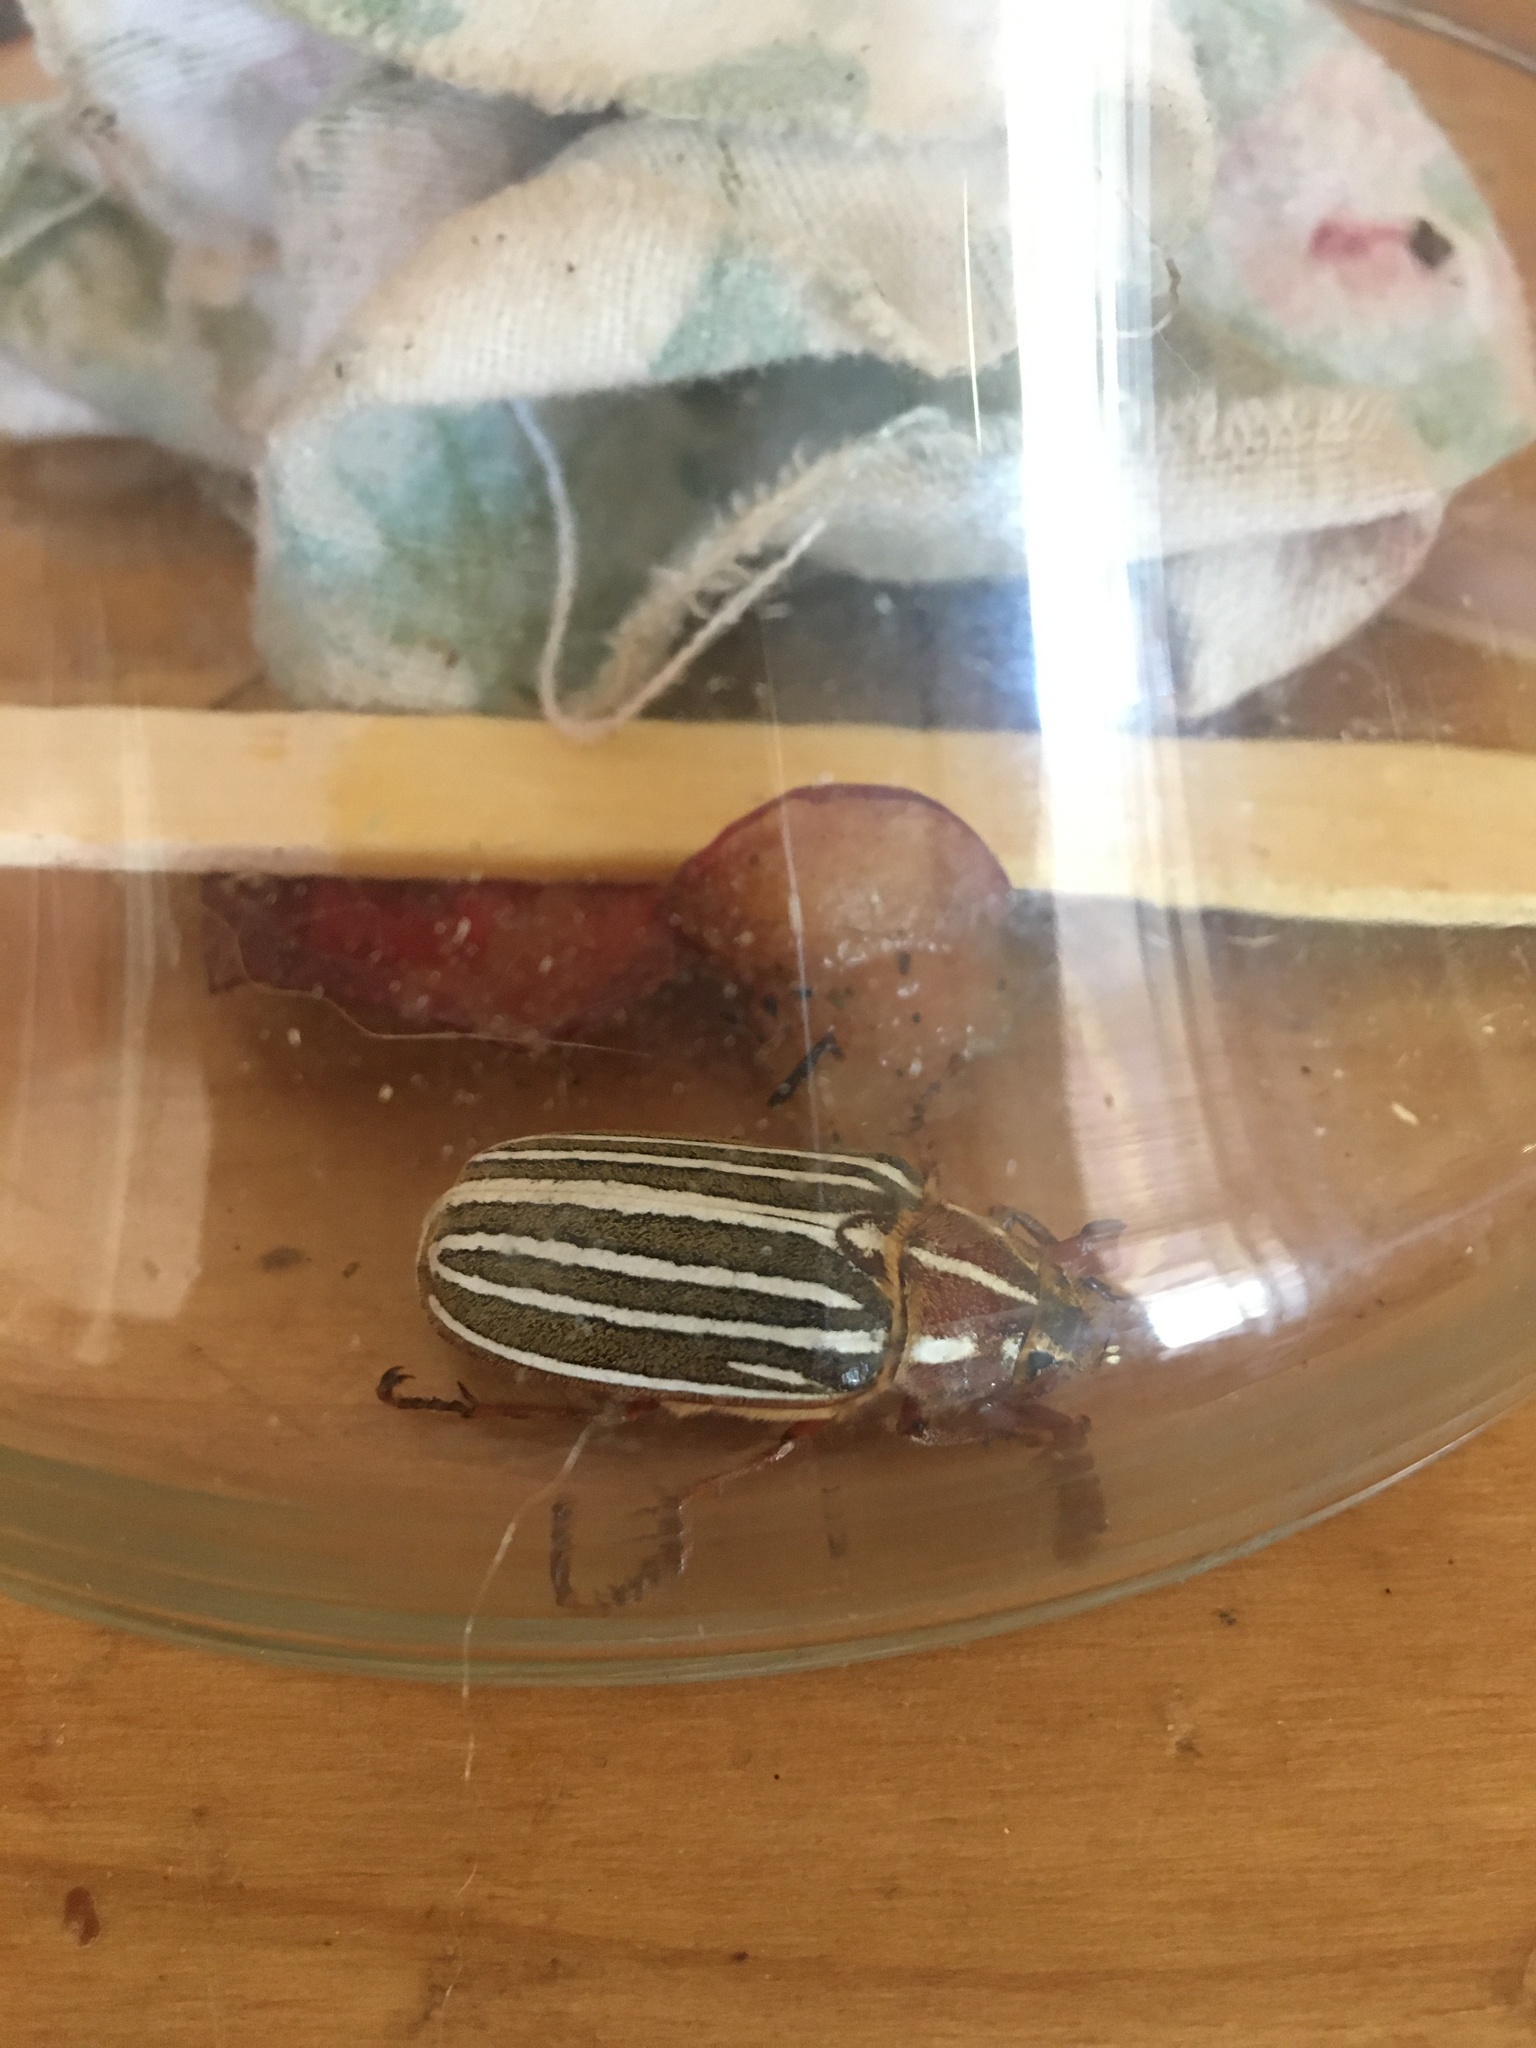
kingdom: Animalia
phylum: Arthropoda
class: Insecta
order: Coleoptera
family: Scarabaeidae
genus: Polyphylla
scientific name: Polyphylla decemlineata
